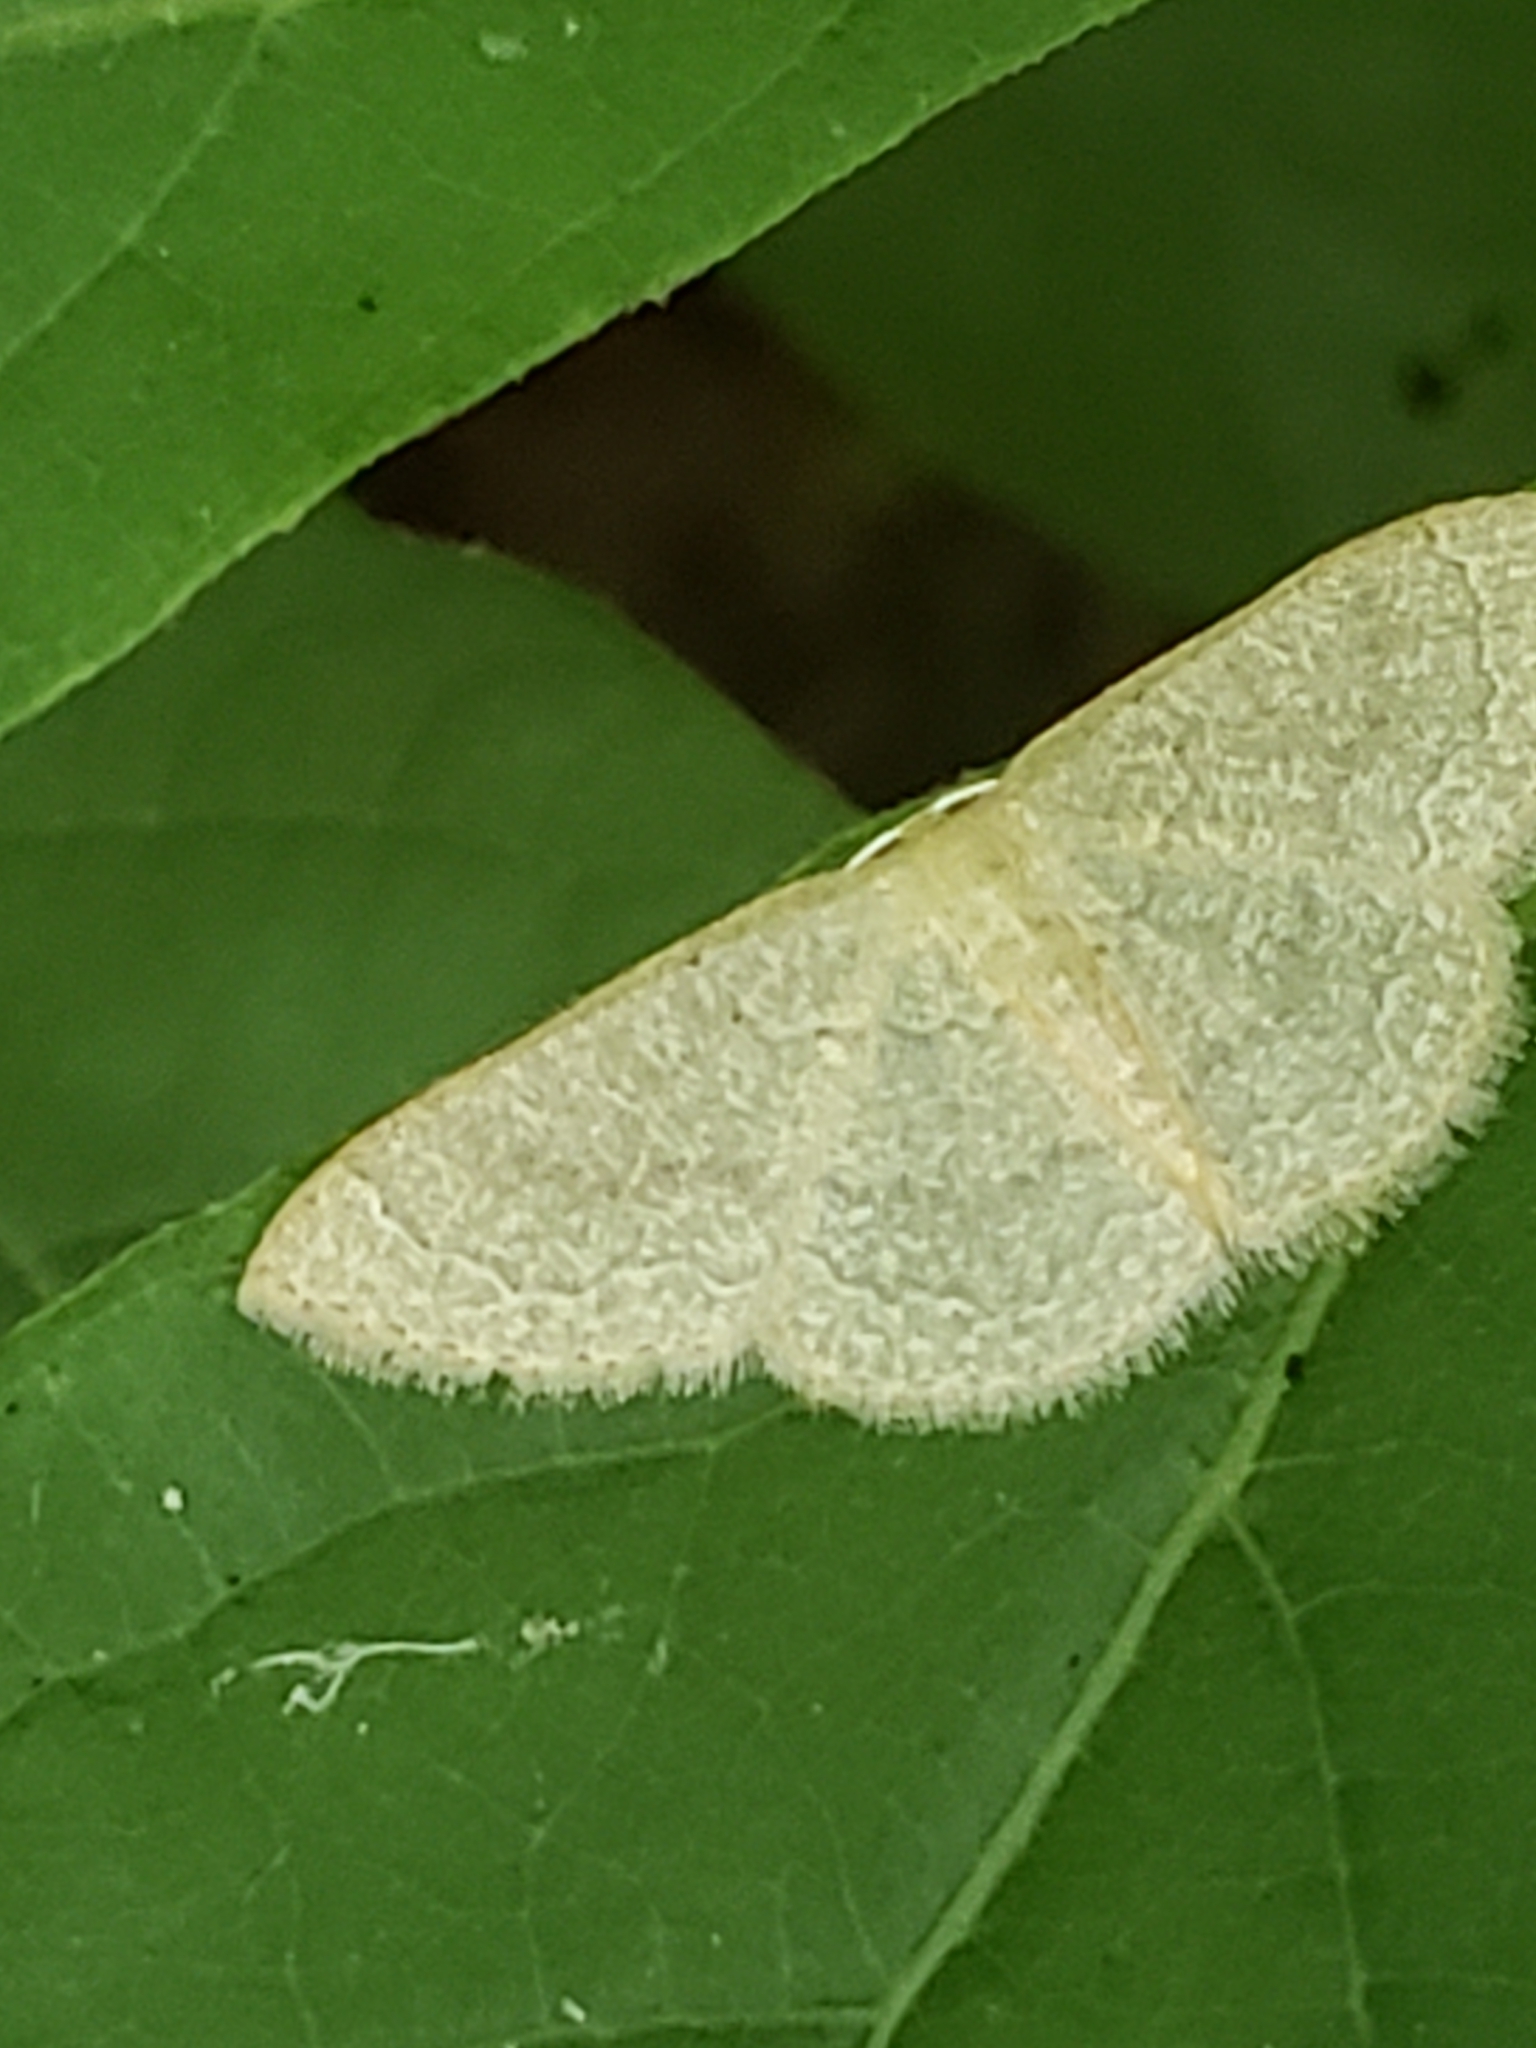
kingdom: Animalia
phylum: Arthropoda
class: Insecta
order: Lepidoptera
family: Geometridae
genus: Pleuroprucha
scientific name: Pleuroprucha insulsaria
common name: Common tan wave
